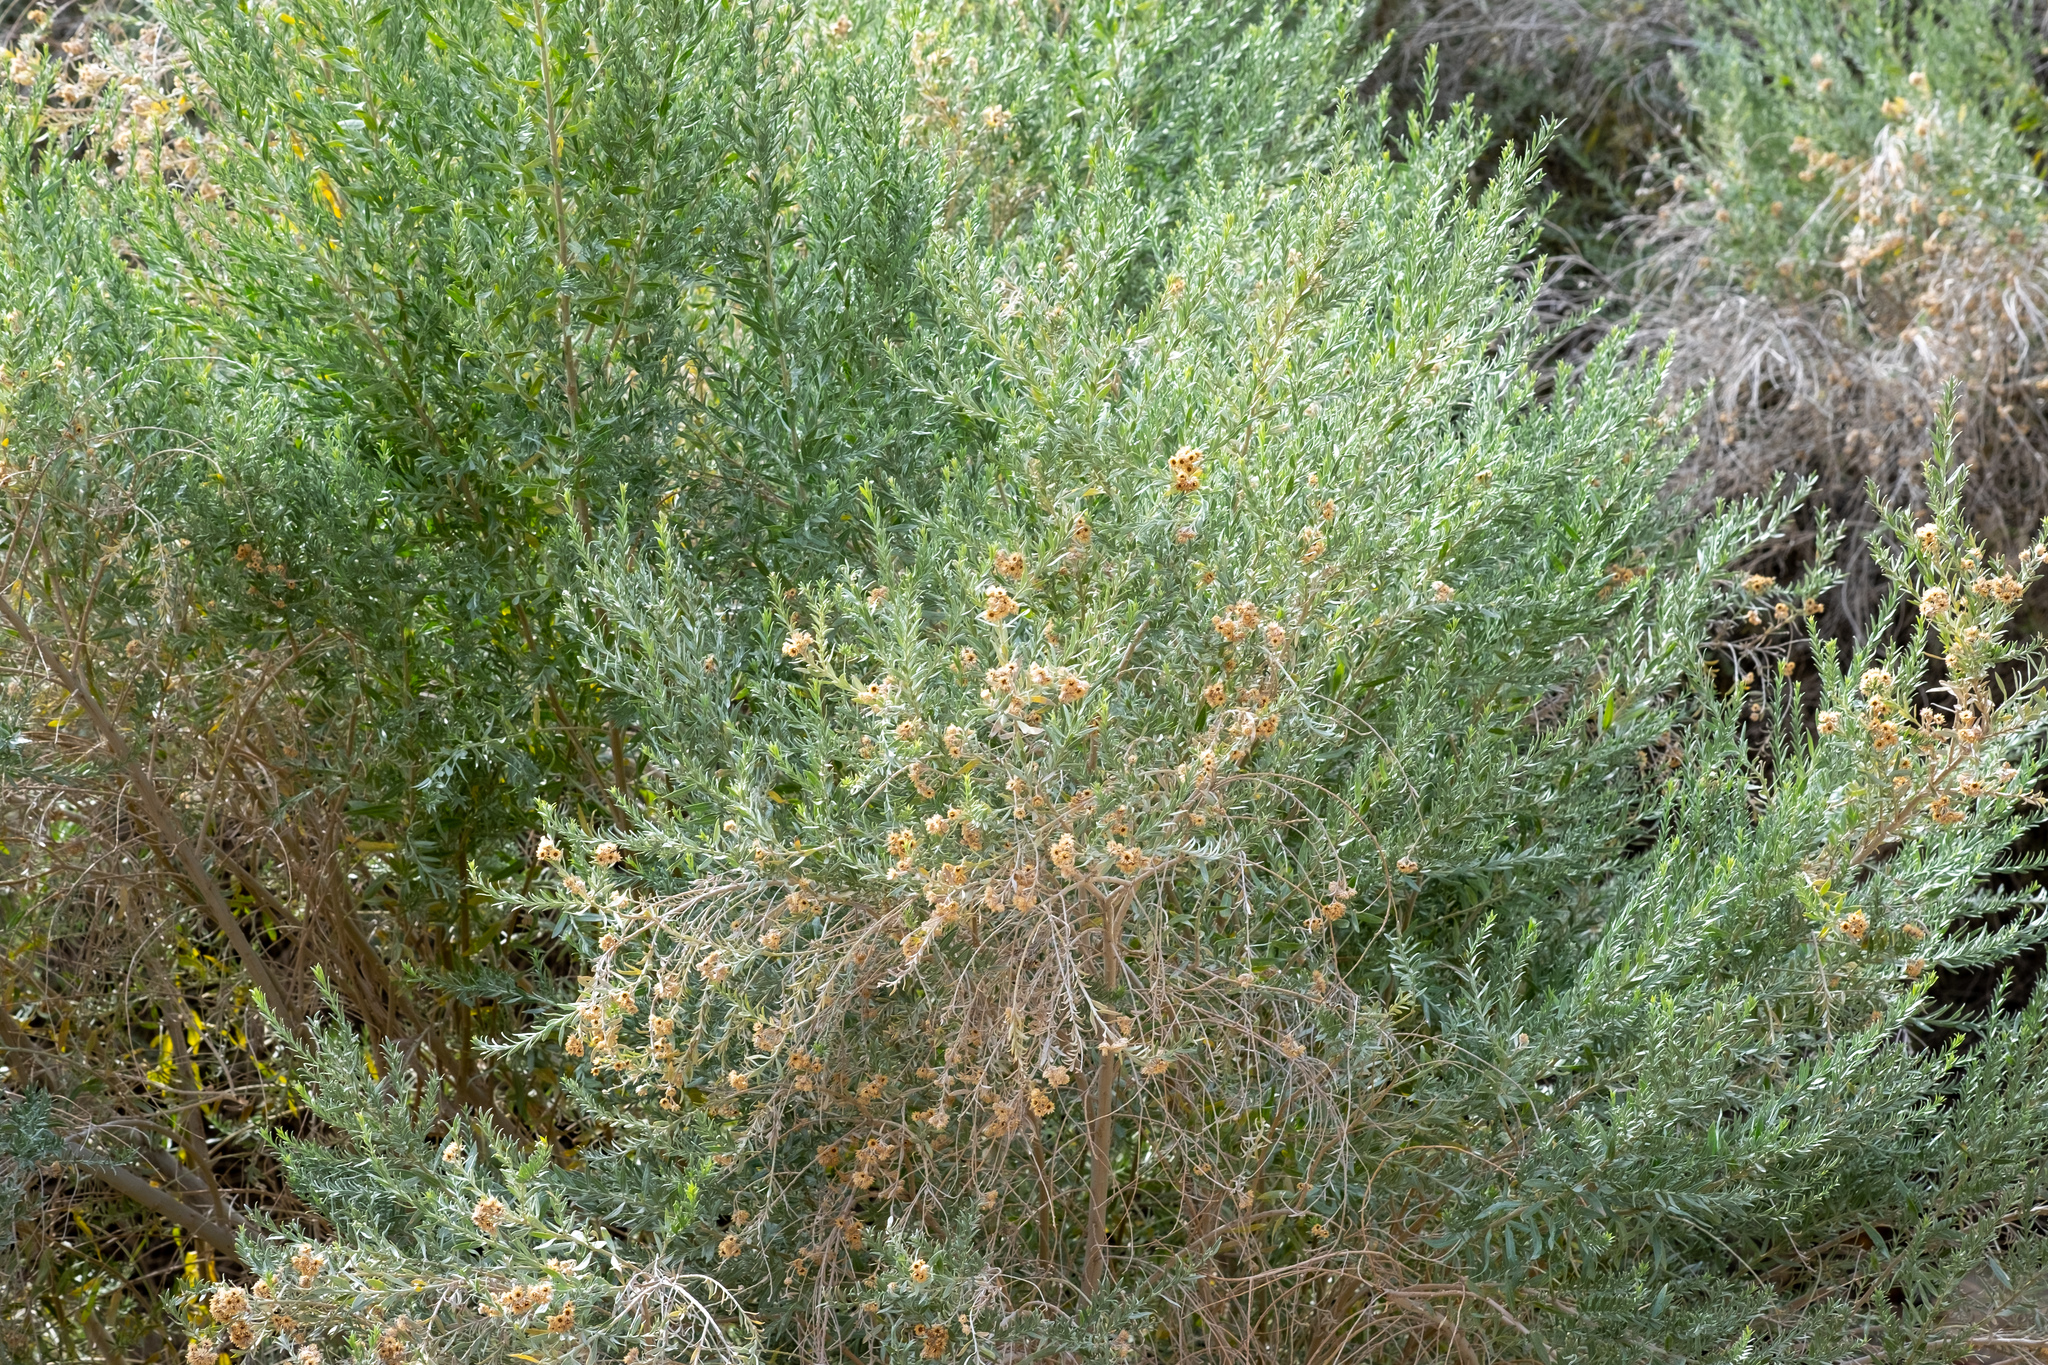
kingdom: Plantae
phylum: Tracheophyta
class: Magnoliopsida
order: Asterales
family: Asteraceae
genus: Pluchea
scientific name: Pluchea sericea
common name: Arrow-weed
